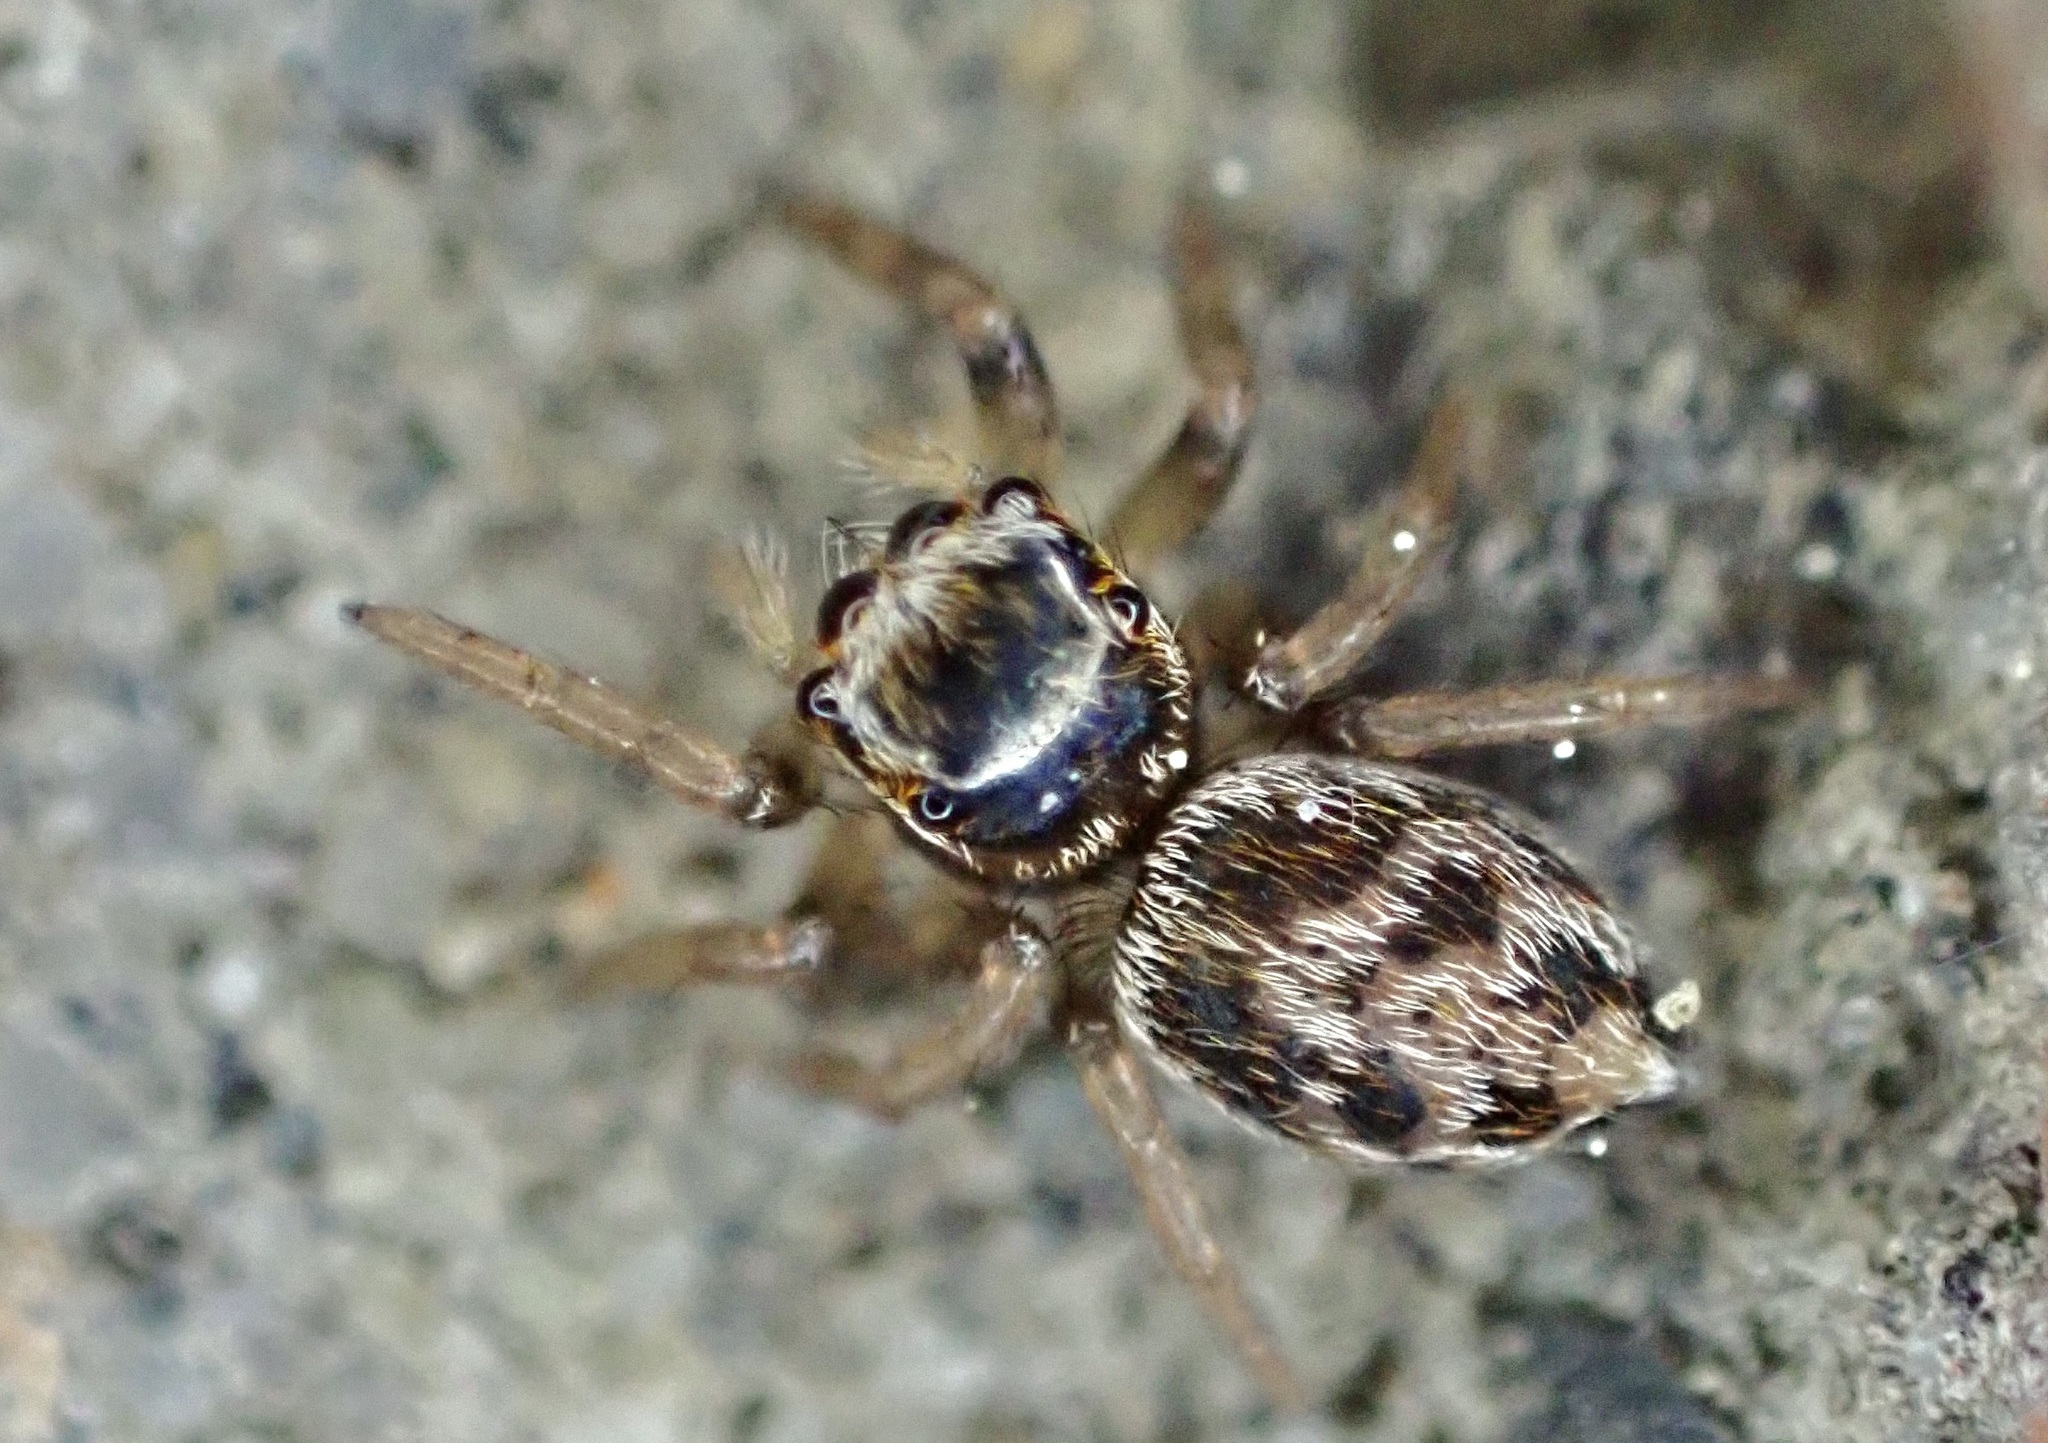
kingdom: Animalia
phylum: Arthropoda
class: Arachnida
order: Araneae
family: Salticidae
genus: Maratus
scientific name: Maratus griseus
